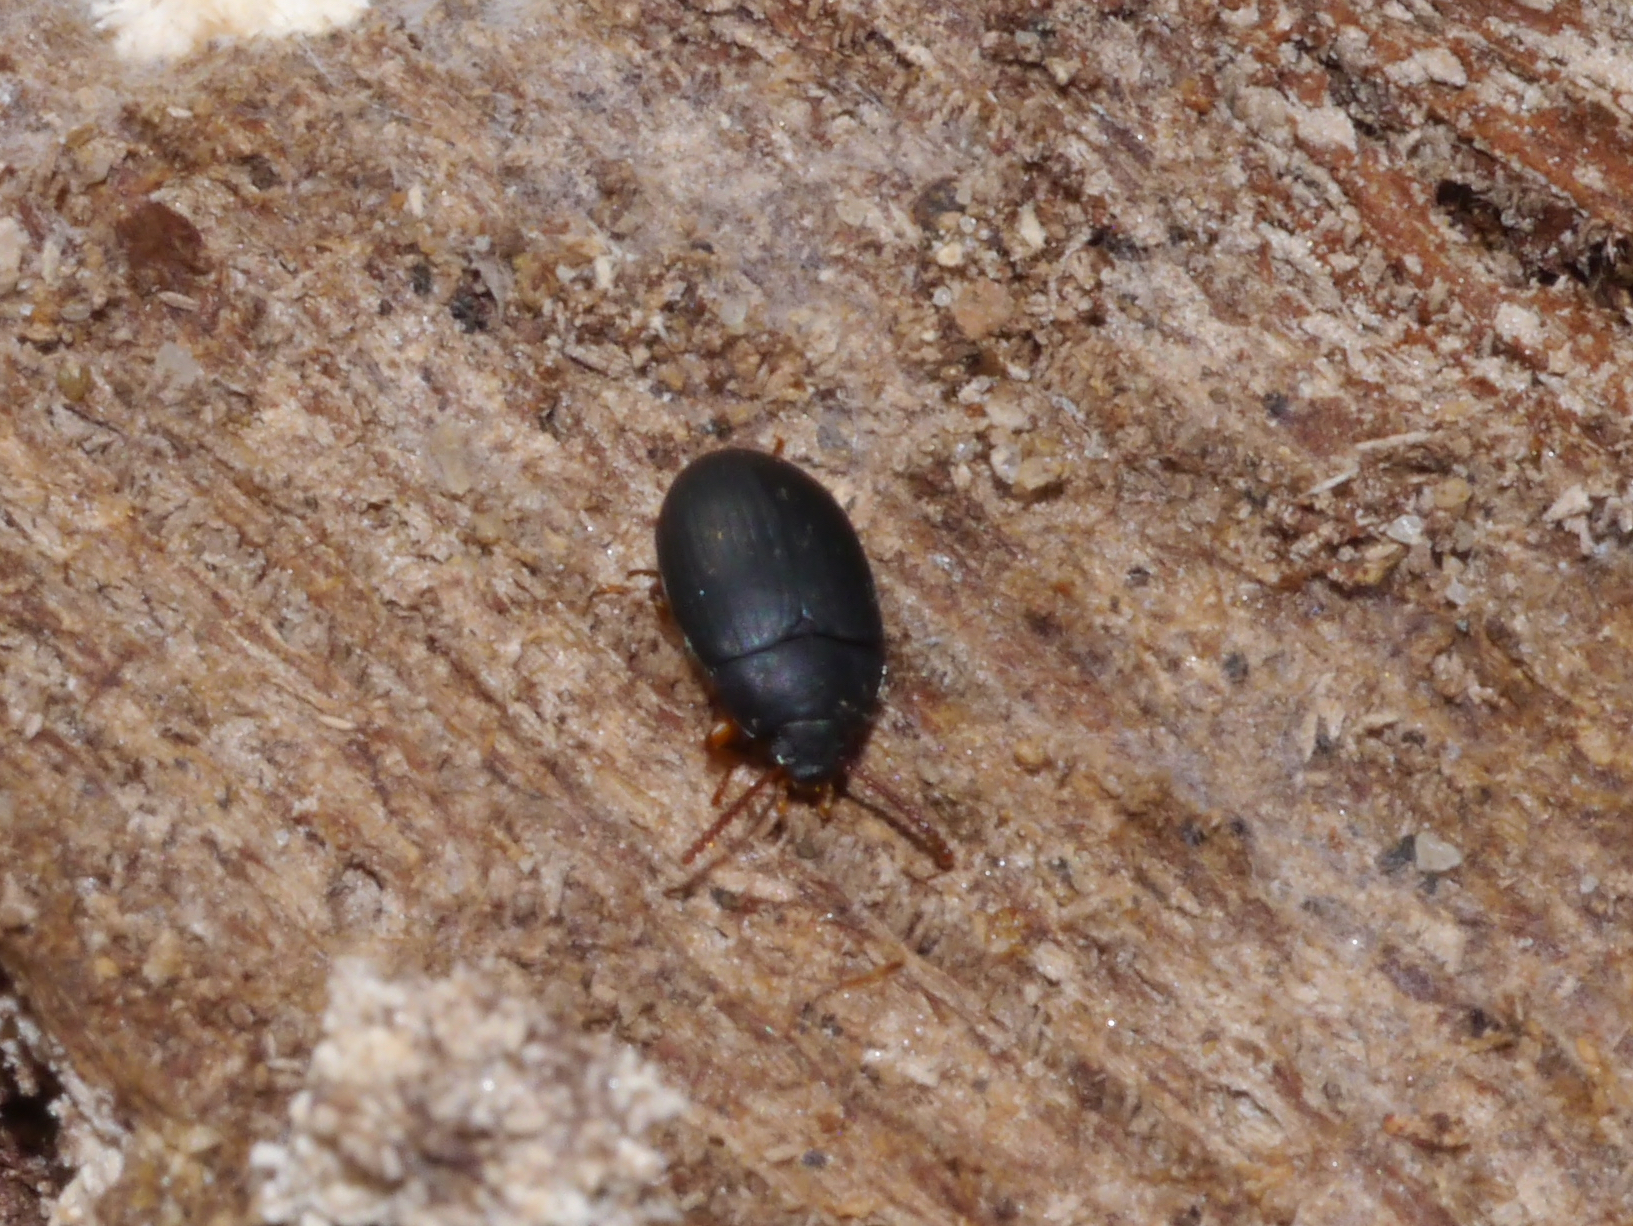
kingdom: Animalia
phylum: Arthropoda
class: Insecta
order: Coleoptera
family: Tenebrionidae
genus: Platydema
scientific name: Platydema ruficornis
